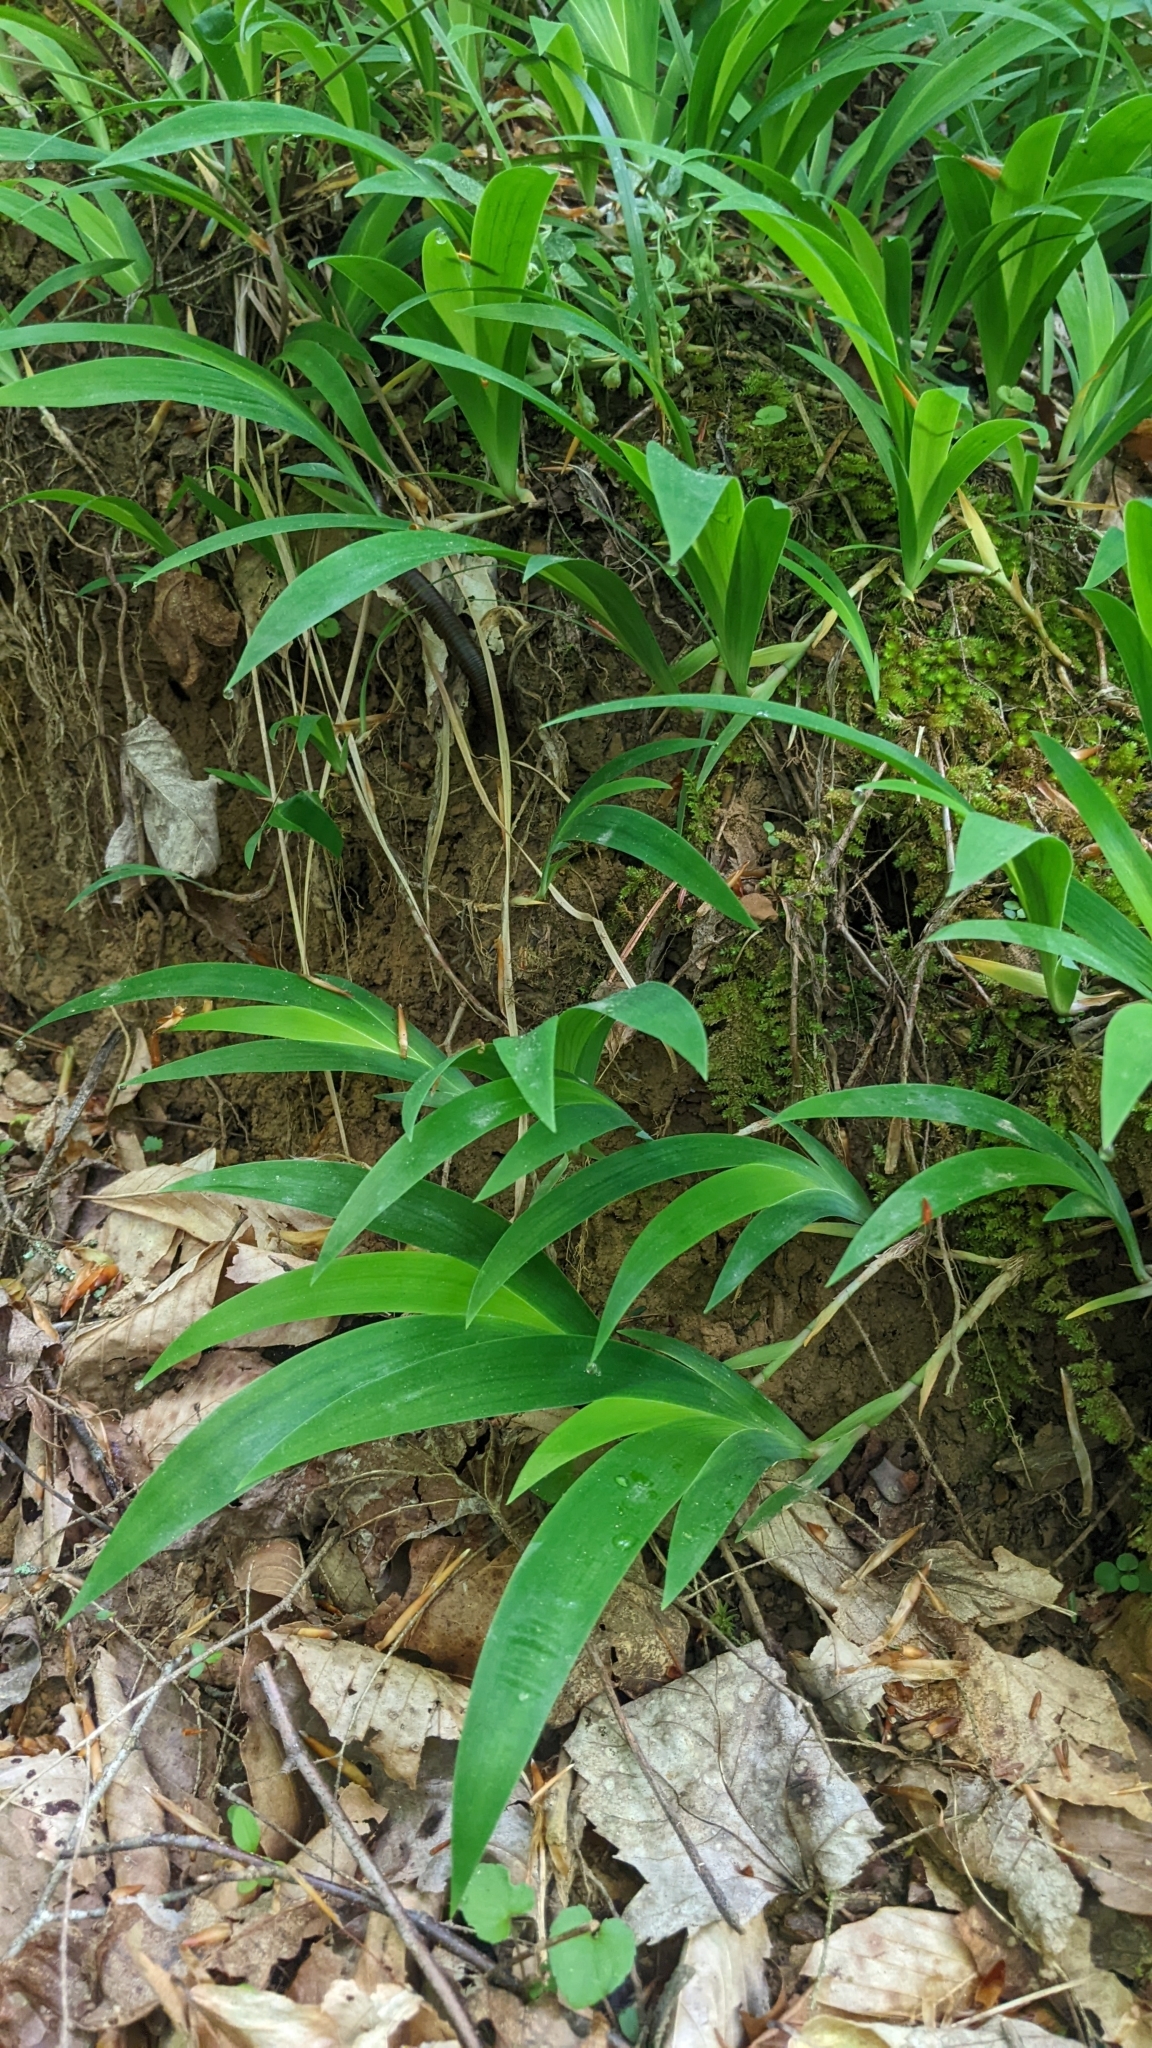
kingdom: Plantae
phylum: Tracheophyta
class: Liliopsida
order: Asparagales
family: Iridaceae
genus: Iris
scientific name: Iris cristata
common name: Crested iris
